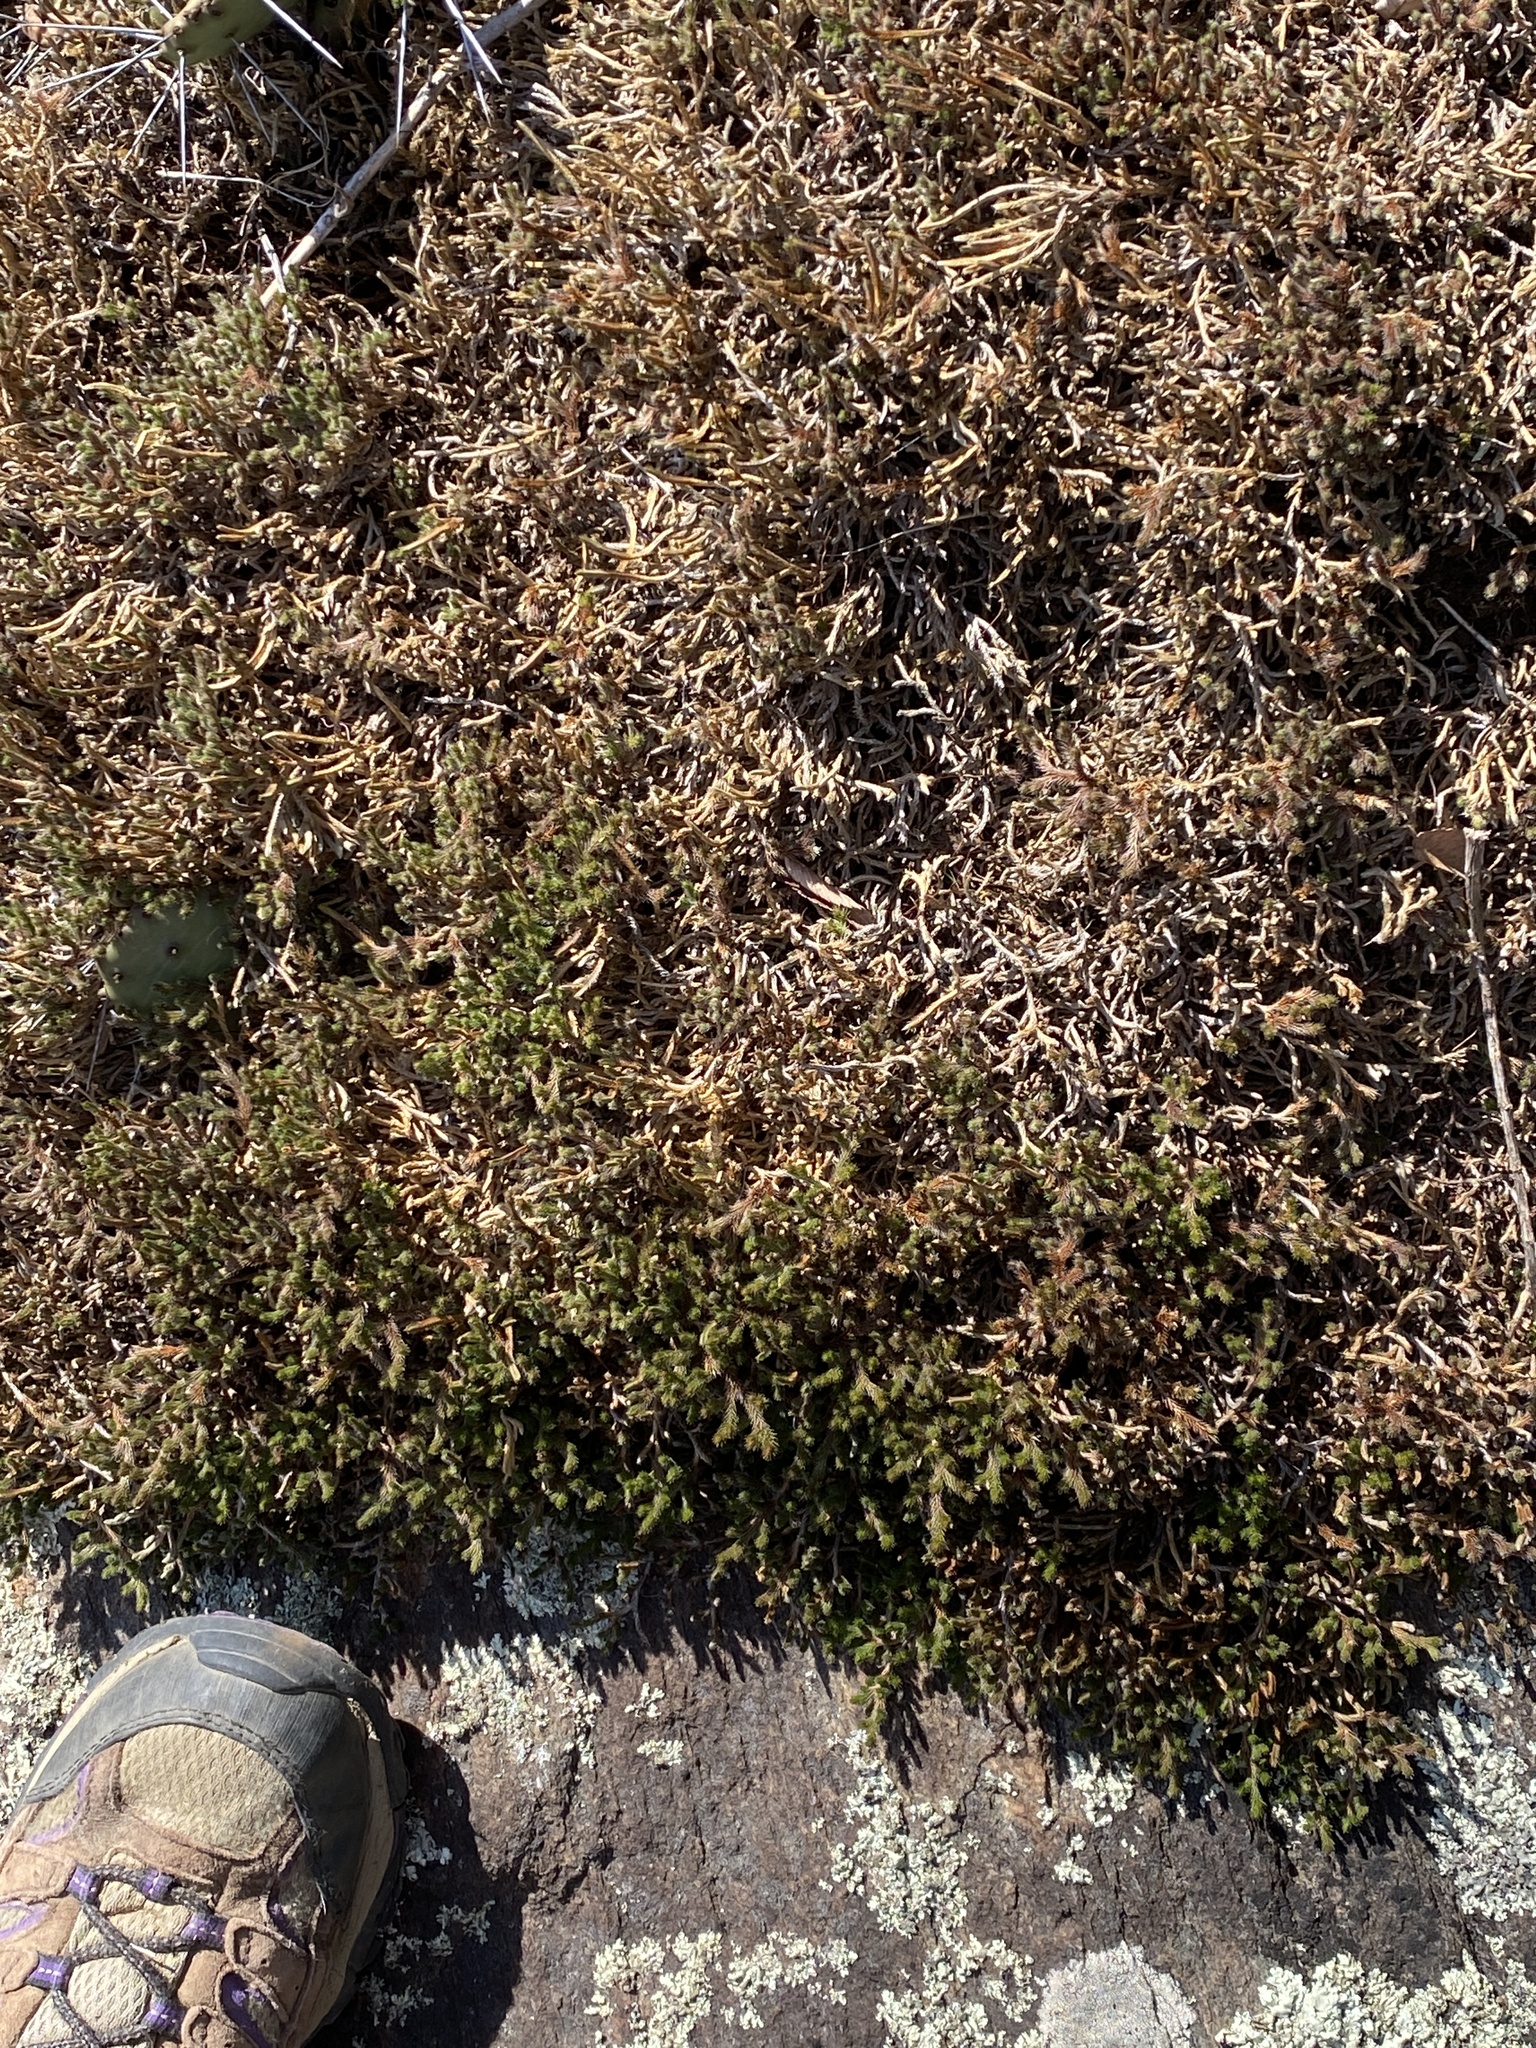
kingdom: Plantae
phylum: Tracheophyta
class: Lycopodiopsida
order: Selaginellales
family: Selaginellaceae
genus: Selaginella
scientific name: Selaginella tortipila
